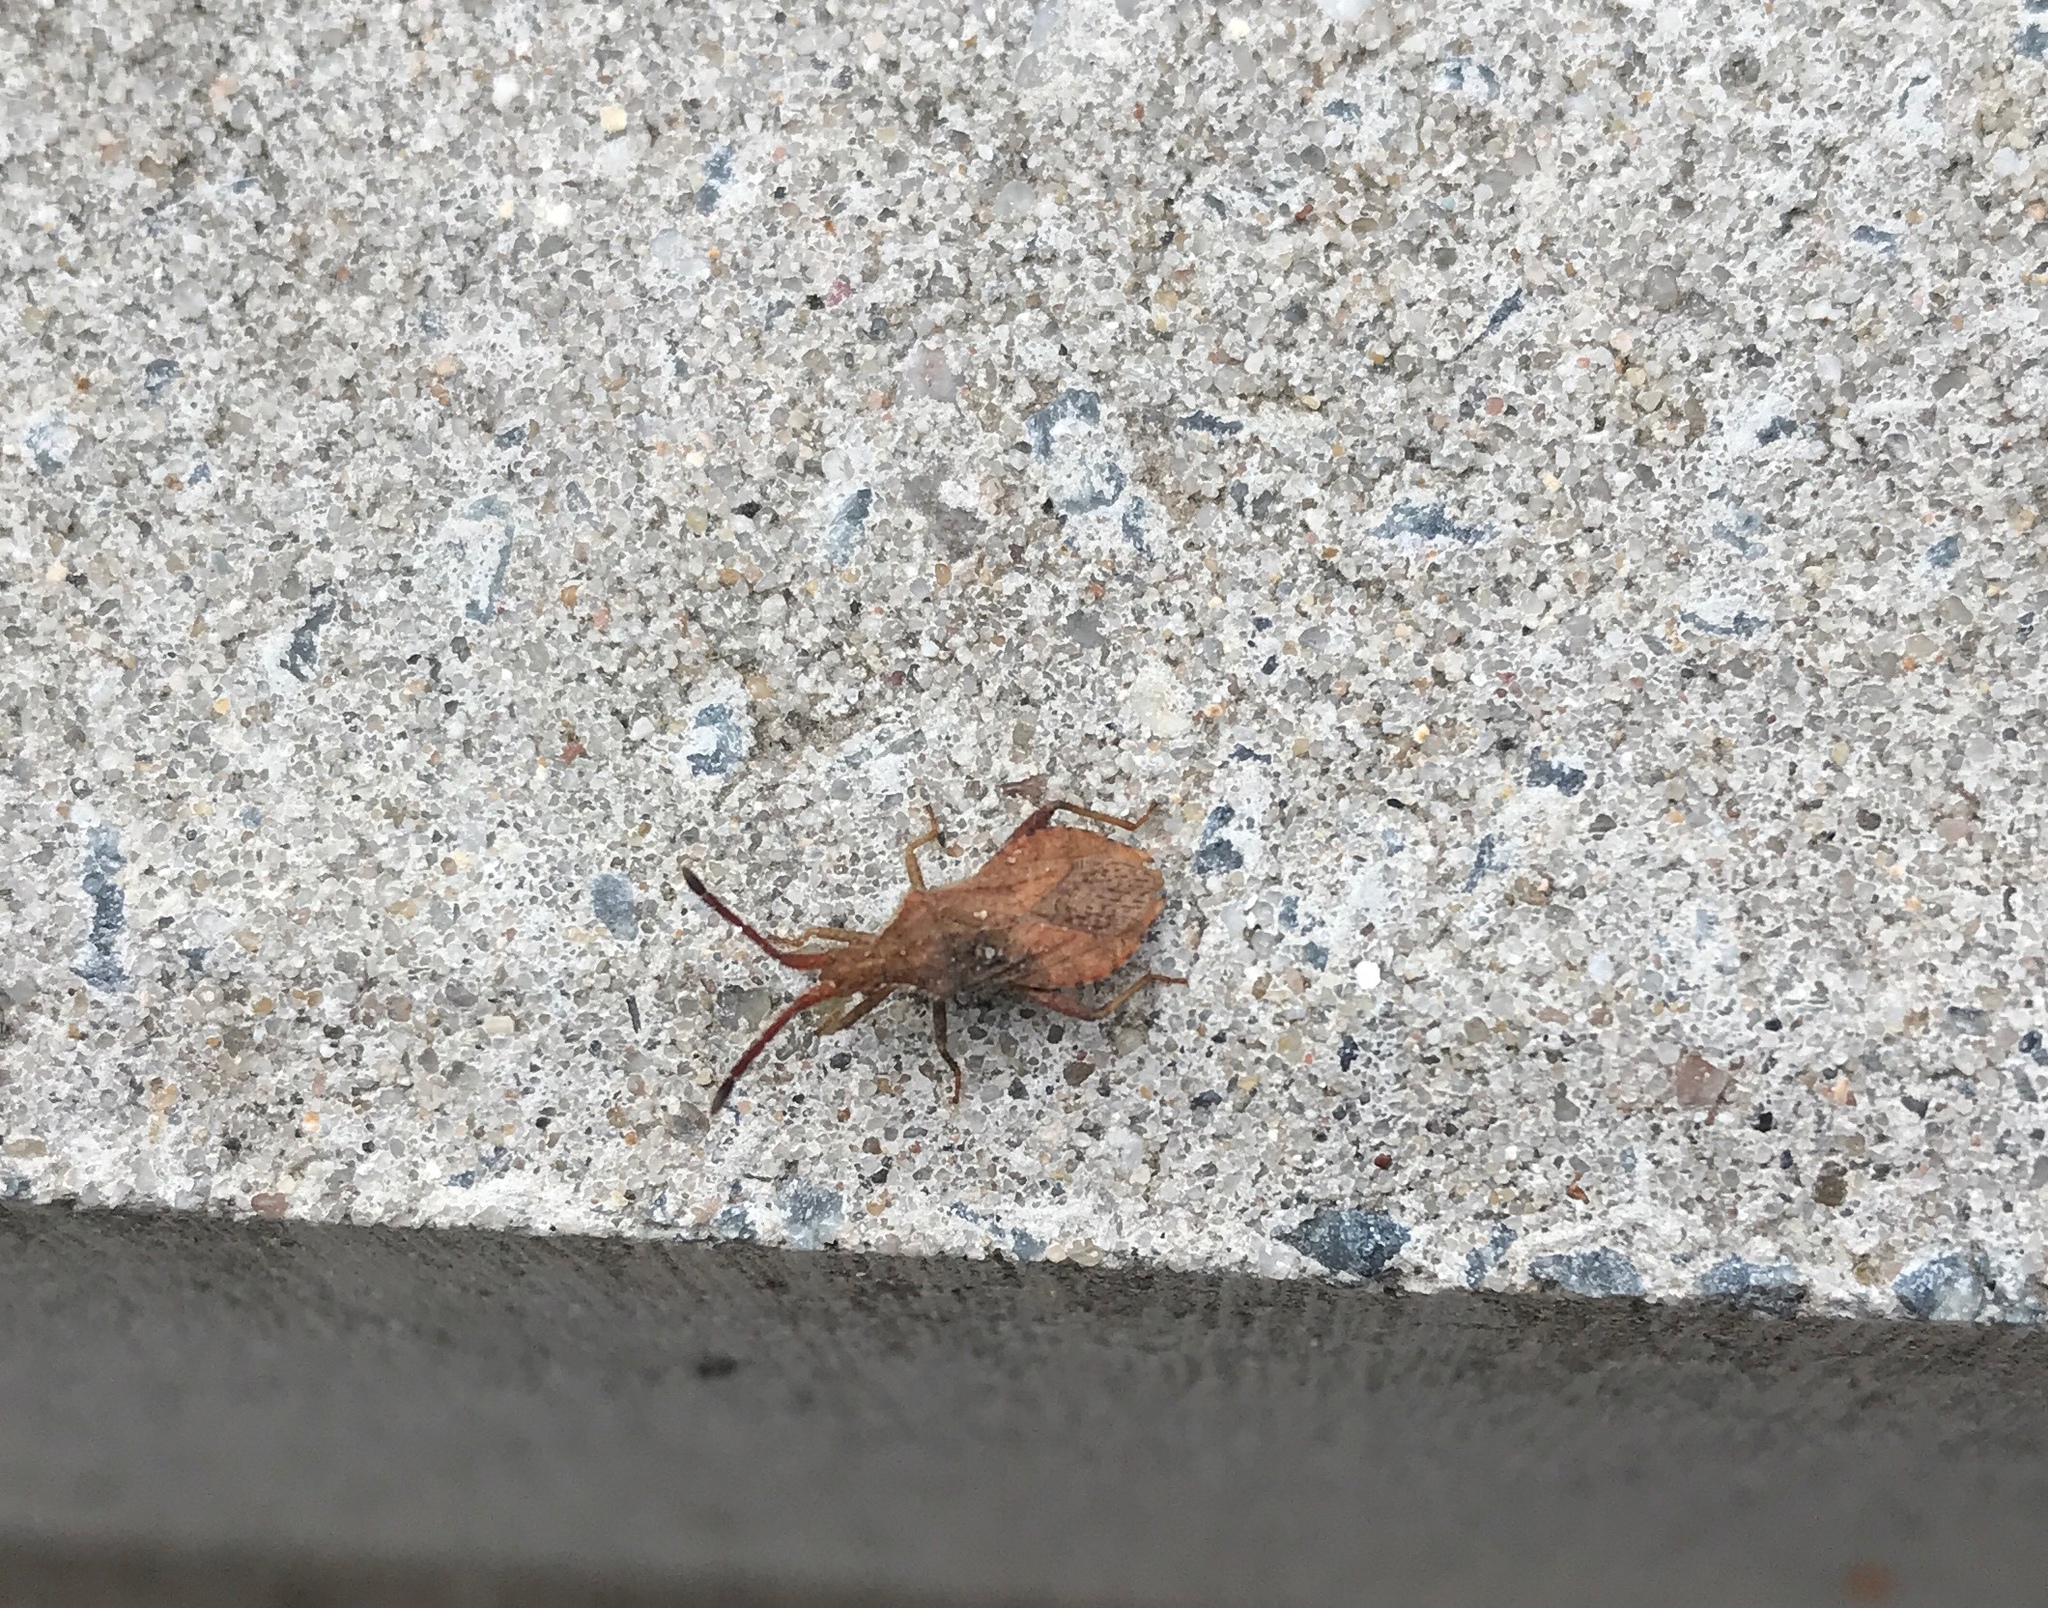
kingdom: Animalia
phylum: Arthropoda
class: Insecta
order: Hemiptera
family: Coreidae
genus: Coriomeris
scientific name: Coriomeris denticulatus
